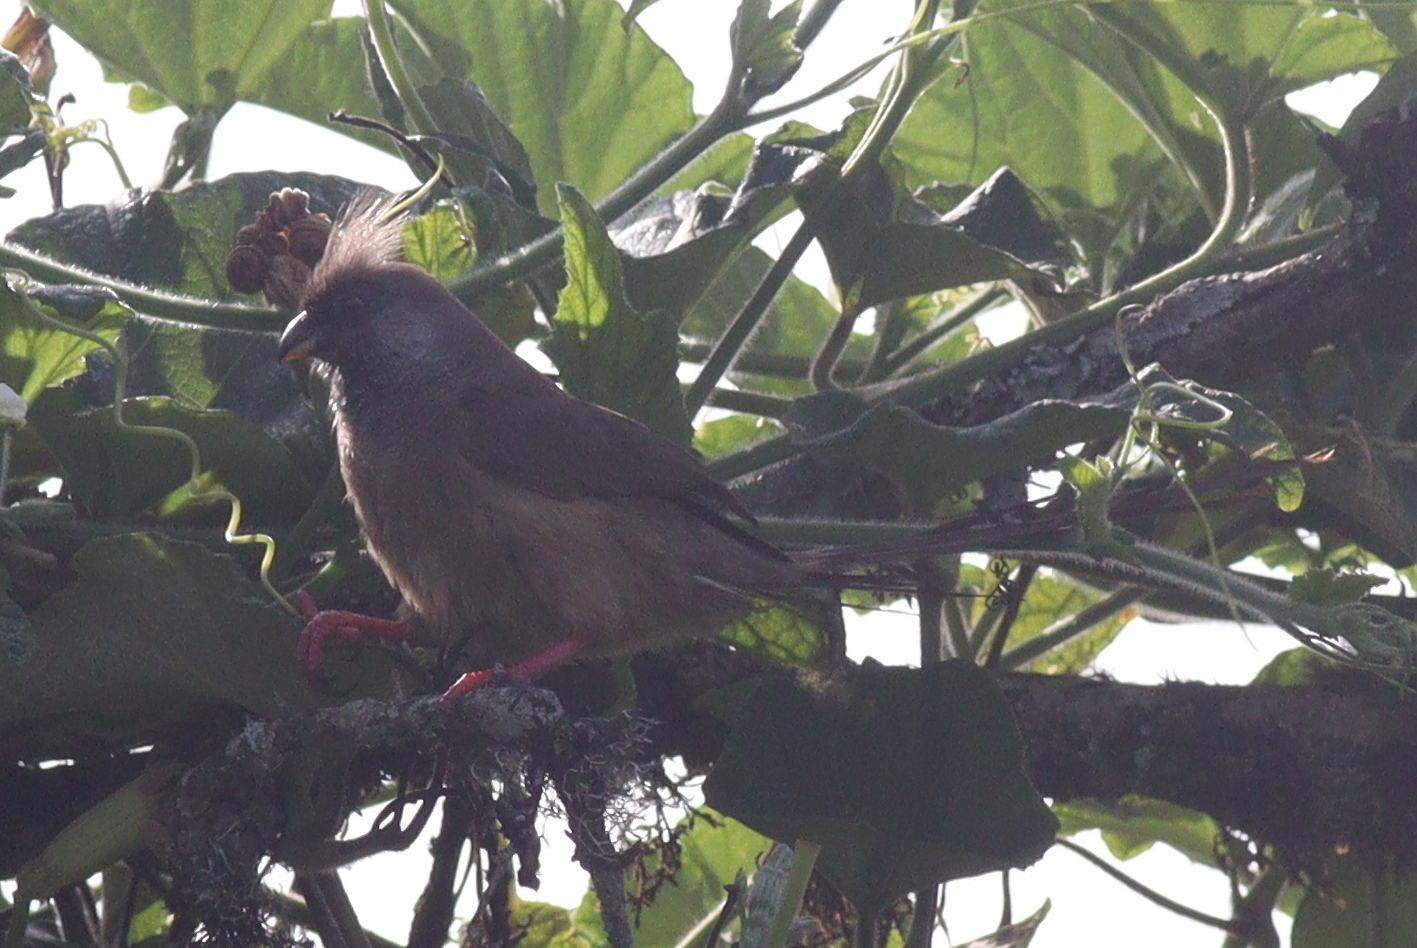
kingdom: Animalia
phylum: Chordata
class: Aves
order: Coliiformes
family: Coliidae
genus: Colius
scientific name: Colius striatus
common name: Speckled mousebird
